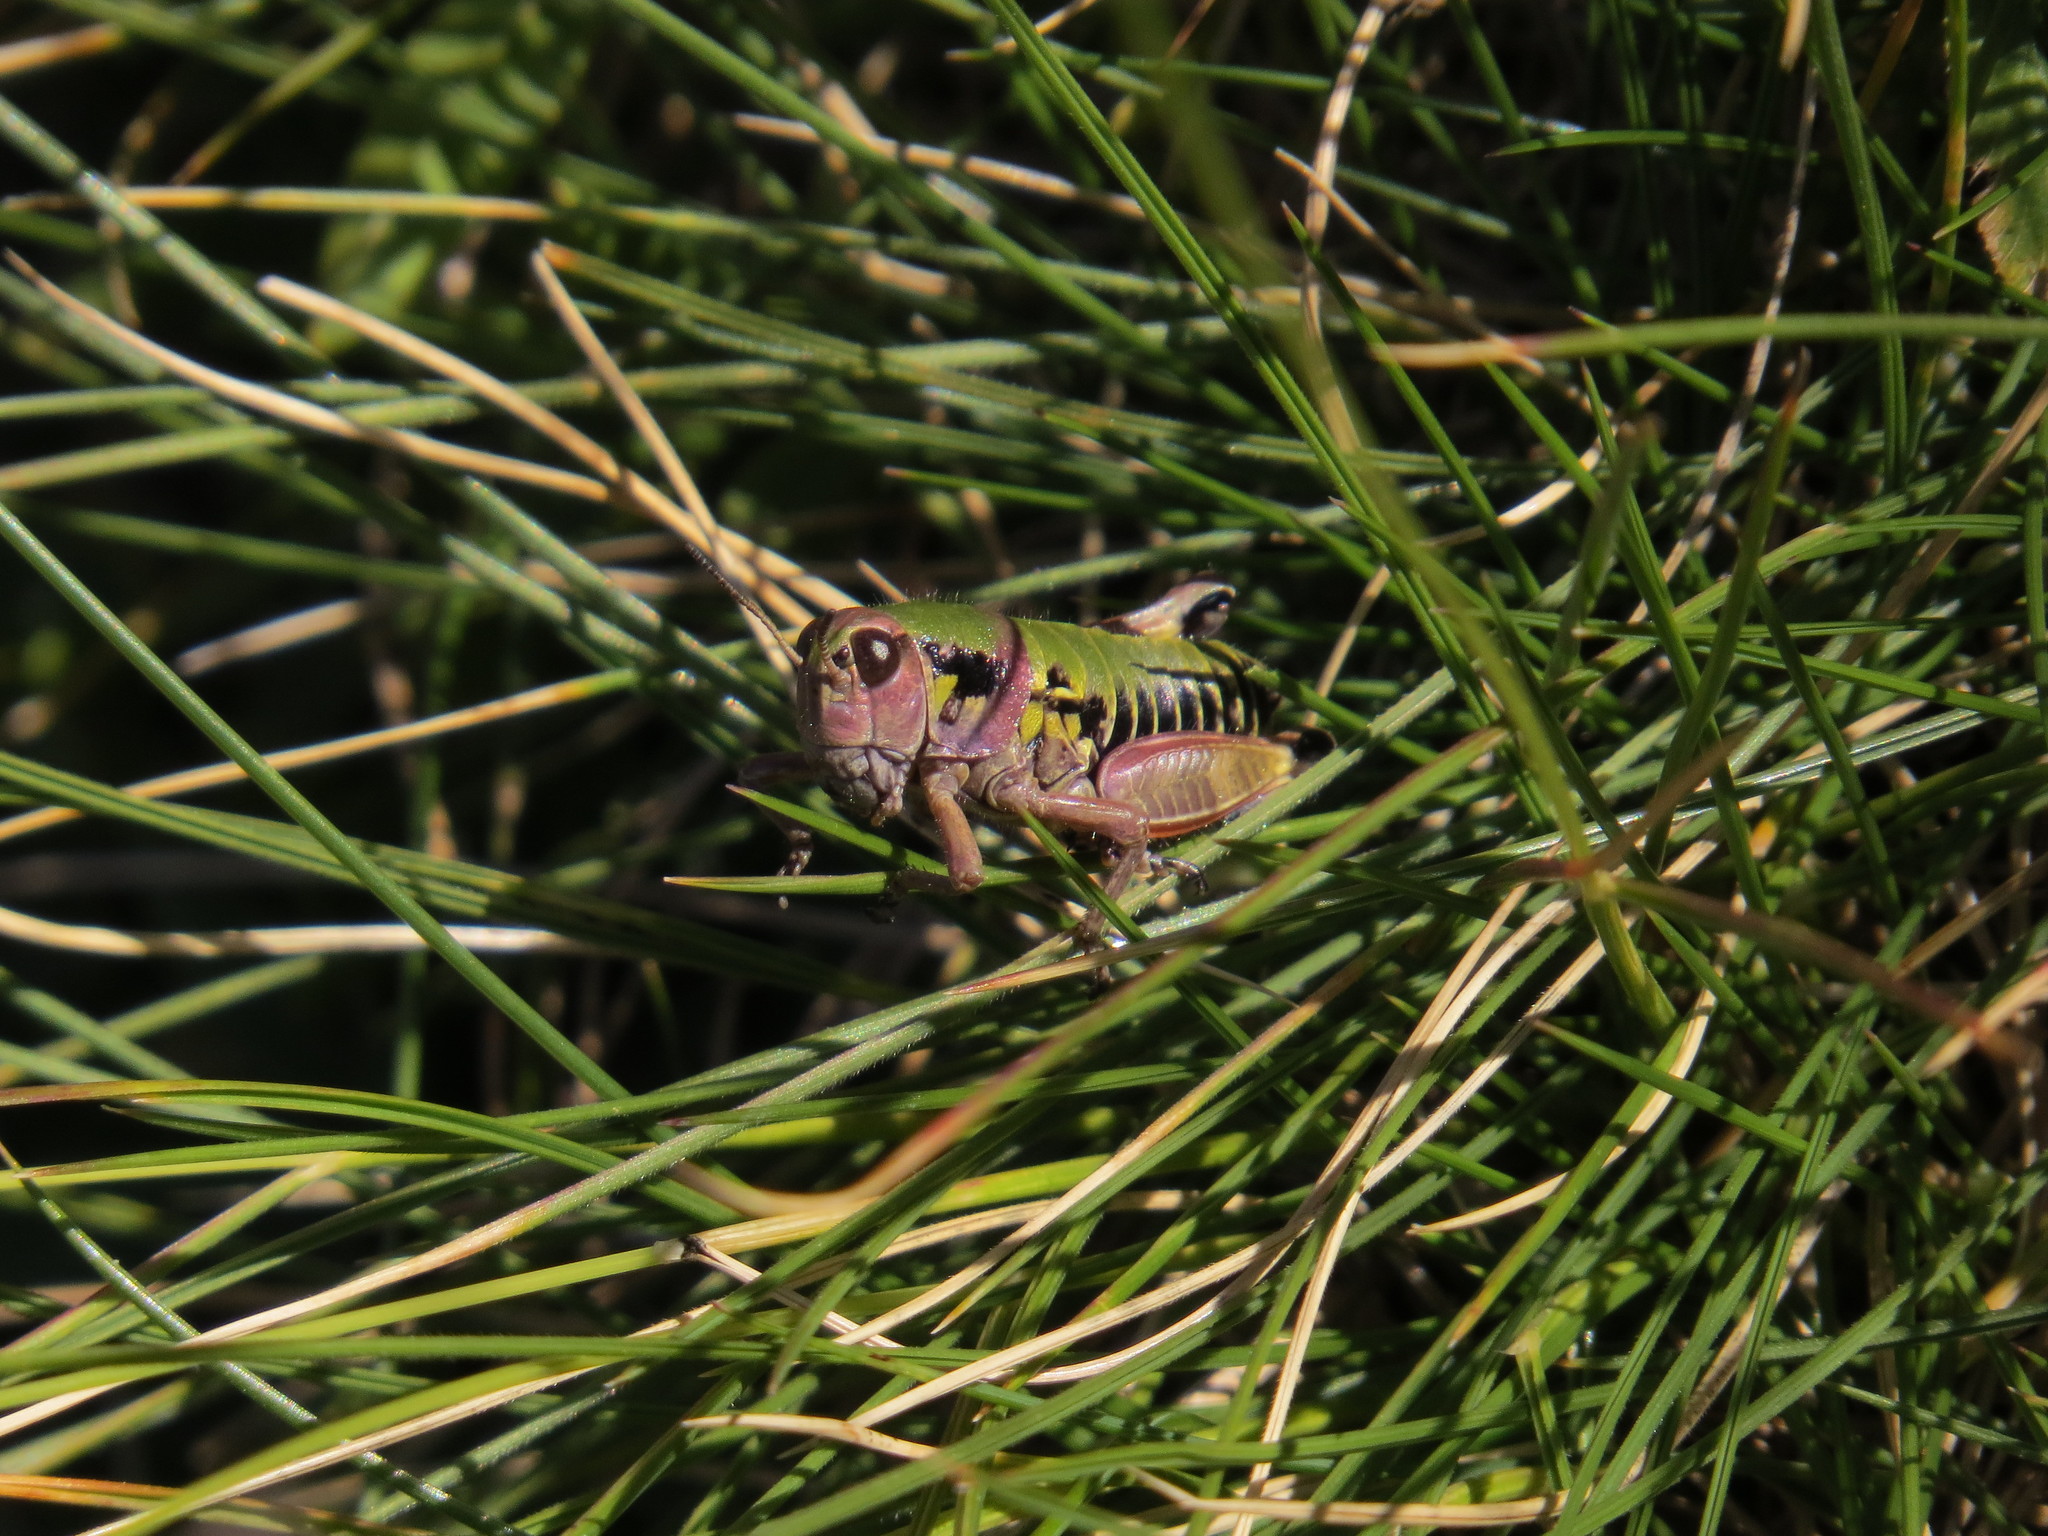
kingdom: Animalia
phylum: Arthropoda
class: Insecta
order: Orthoptera
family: Acrididae
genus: Cophopodisma
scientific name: Cophopodisma pyrenaea
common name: Pyrenean mountain grasshopper
